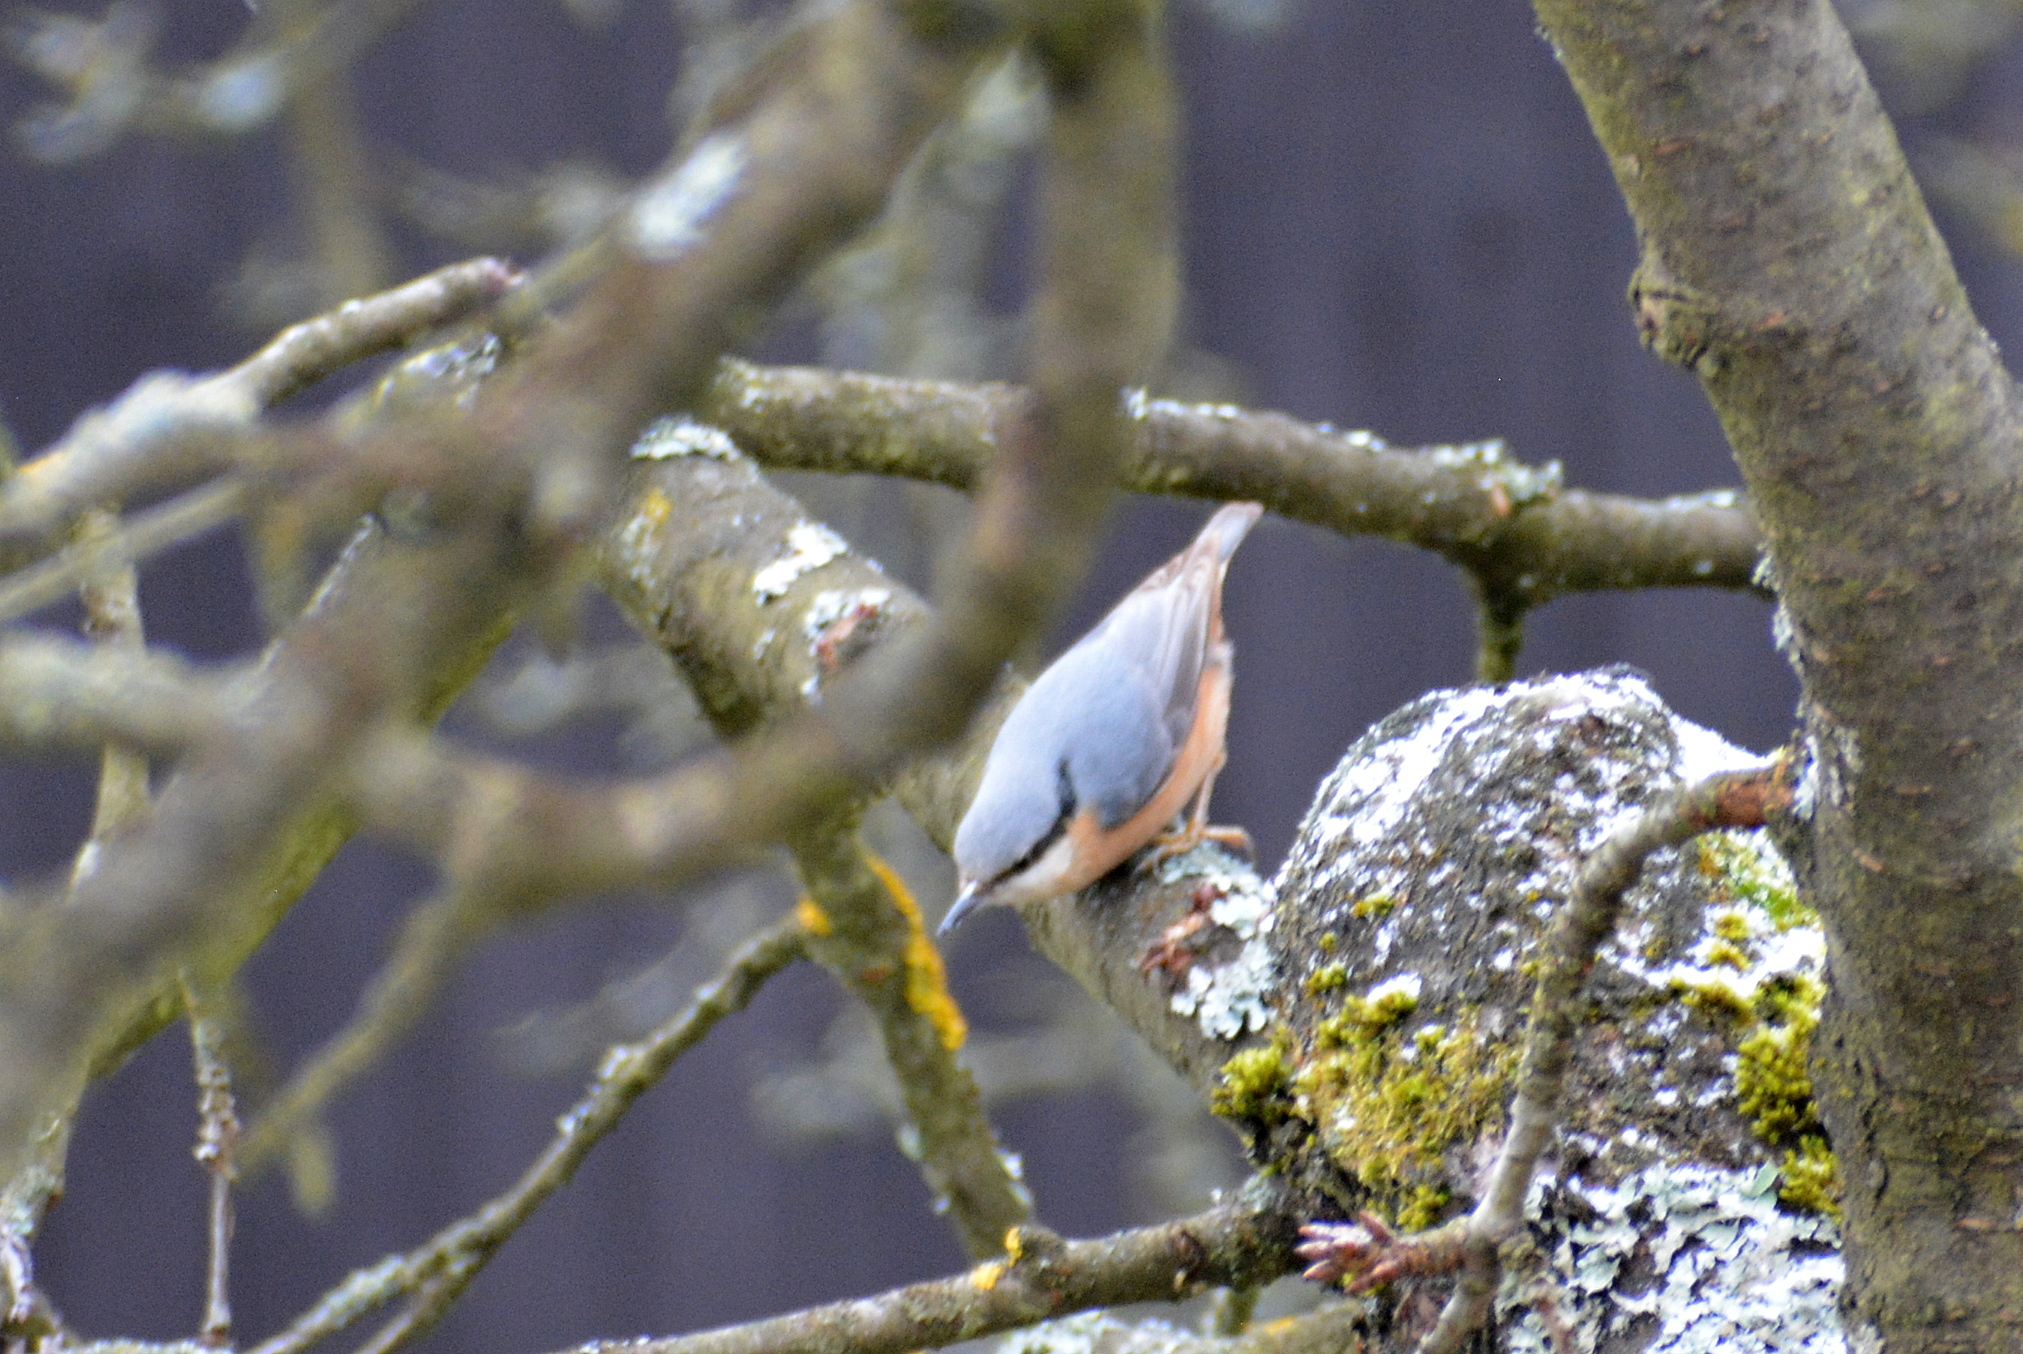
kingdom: Animalia
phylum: Chordata
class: Aves
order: Passeriformes
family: Sittidae
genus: Sitta
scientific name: Sitta europaea
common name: Eurasian nuthatch
